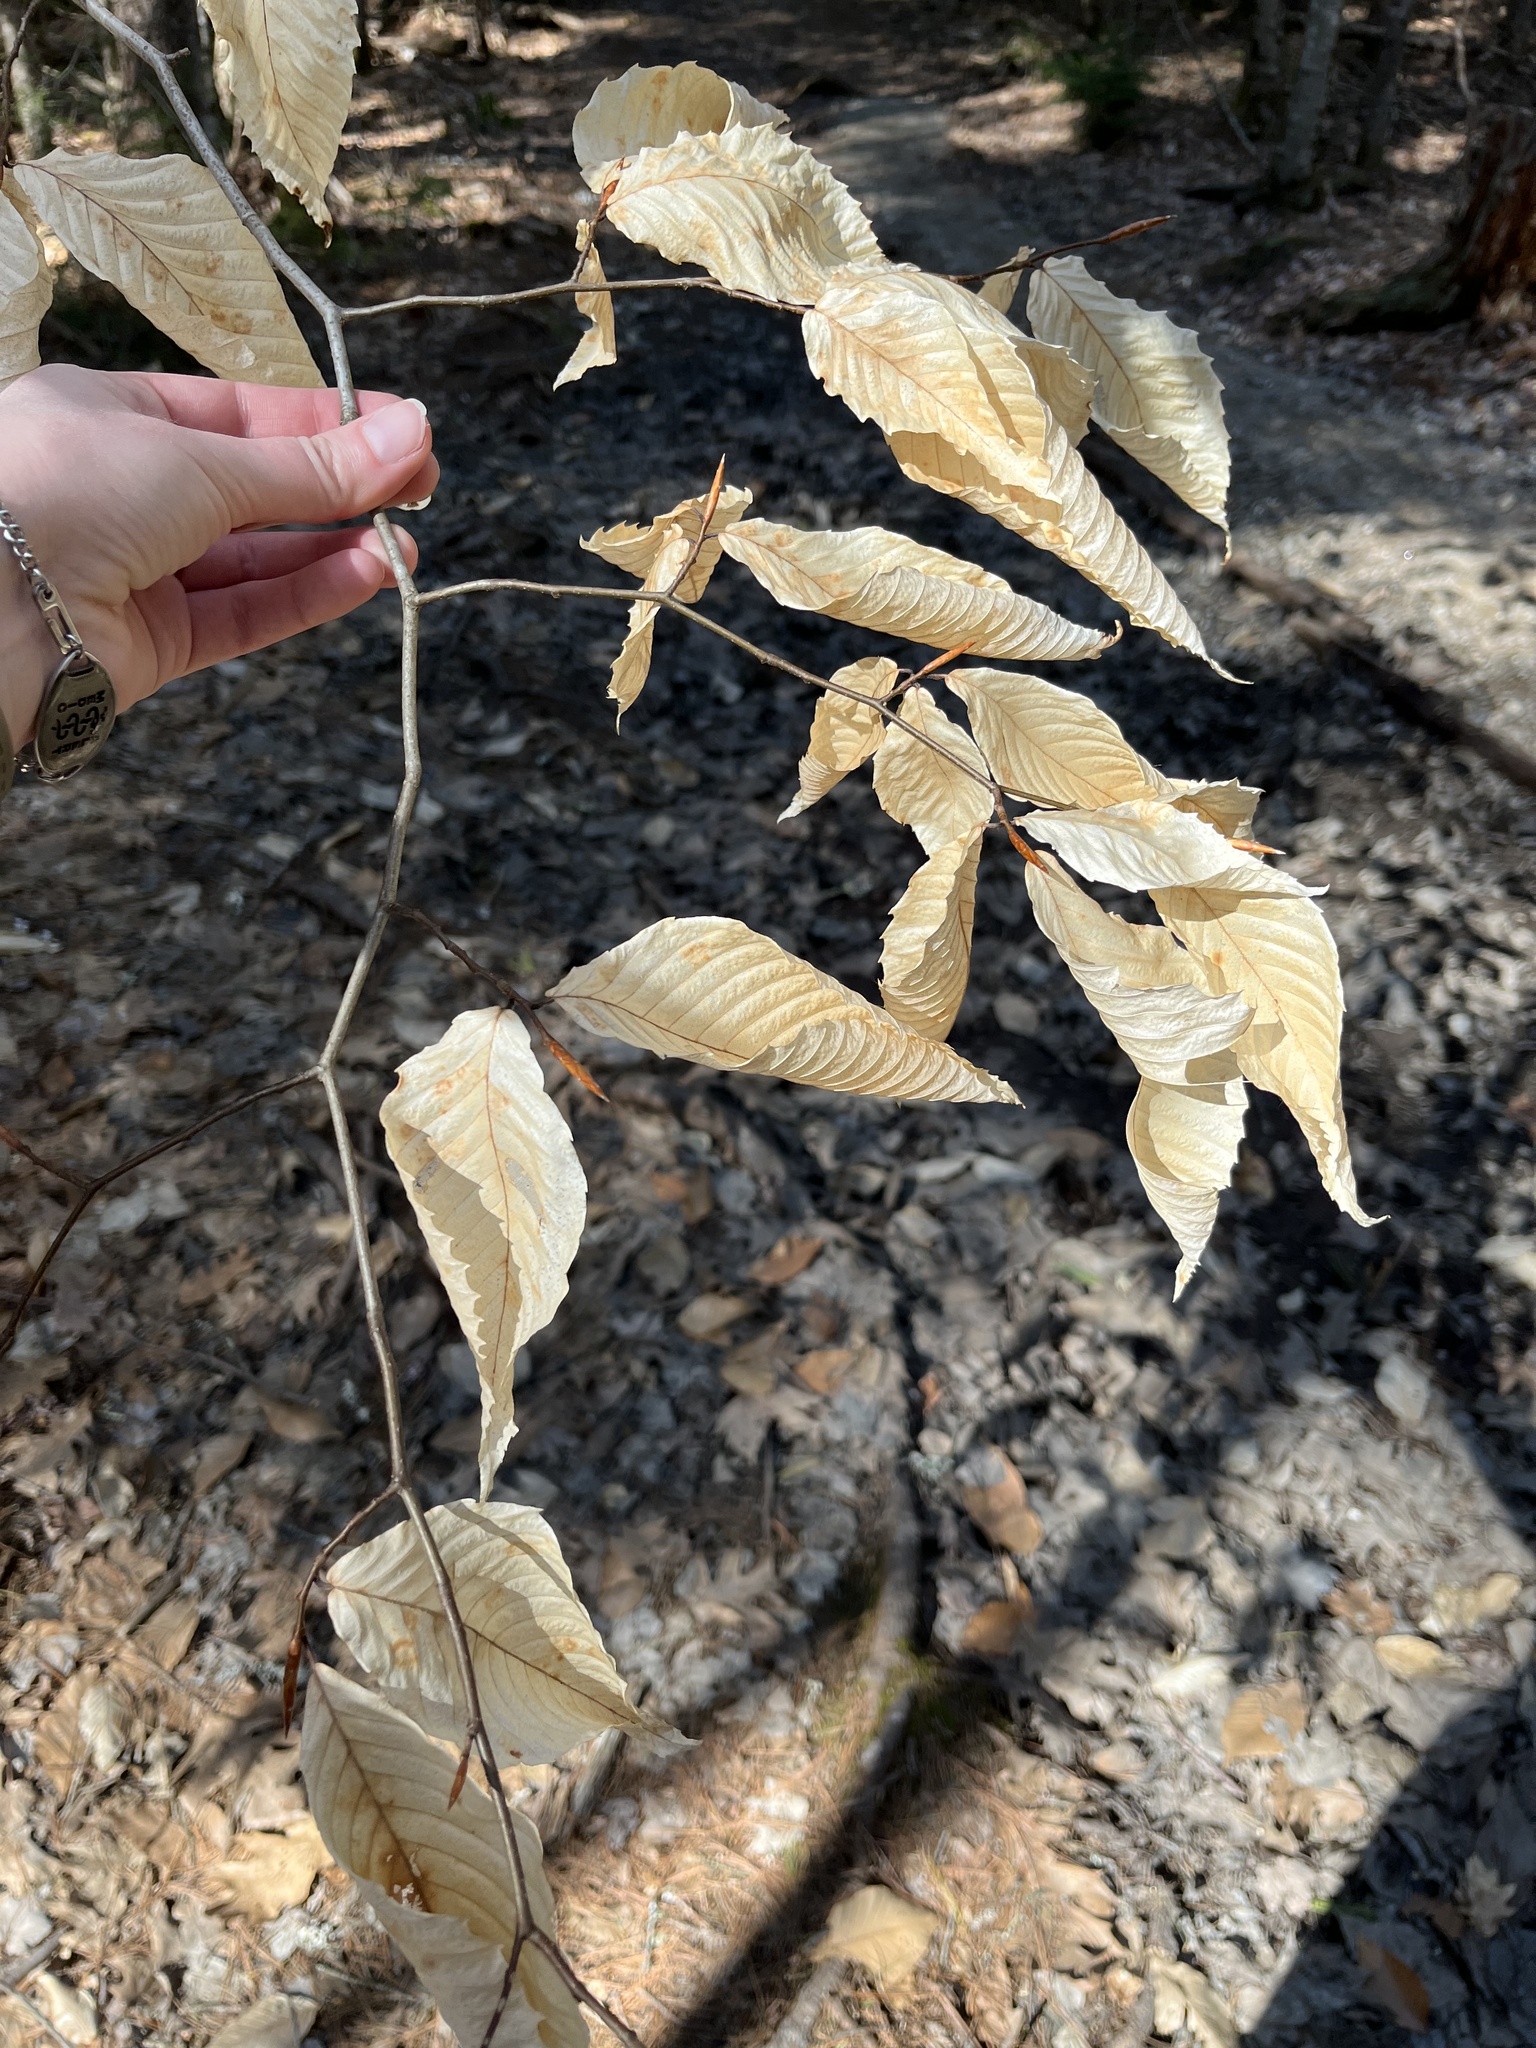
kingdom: Plantae
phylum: Tracheophyta
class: Magnoliopsida
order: Fagales
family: Fagaceae
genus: Fagus
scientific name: Fagus grandifolia
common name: American beech
